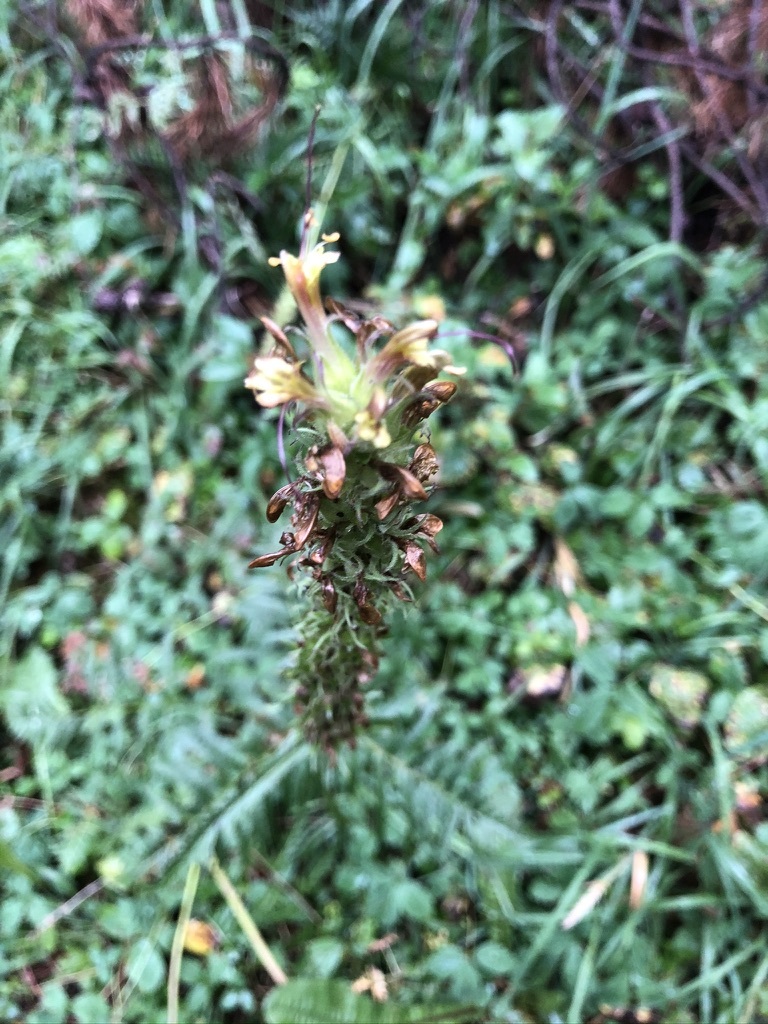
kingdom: Plantae
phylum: Tracheophyta
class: Magnoliopsida
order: Lamiales
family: Orobanchaceae
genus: Pedicularis
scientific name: Pedicularis bracteosa
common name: Bracted lousewort
